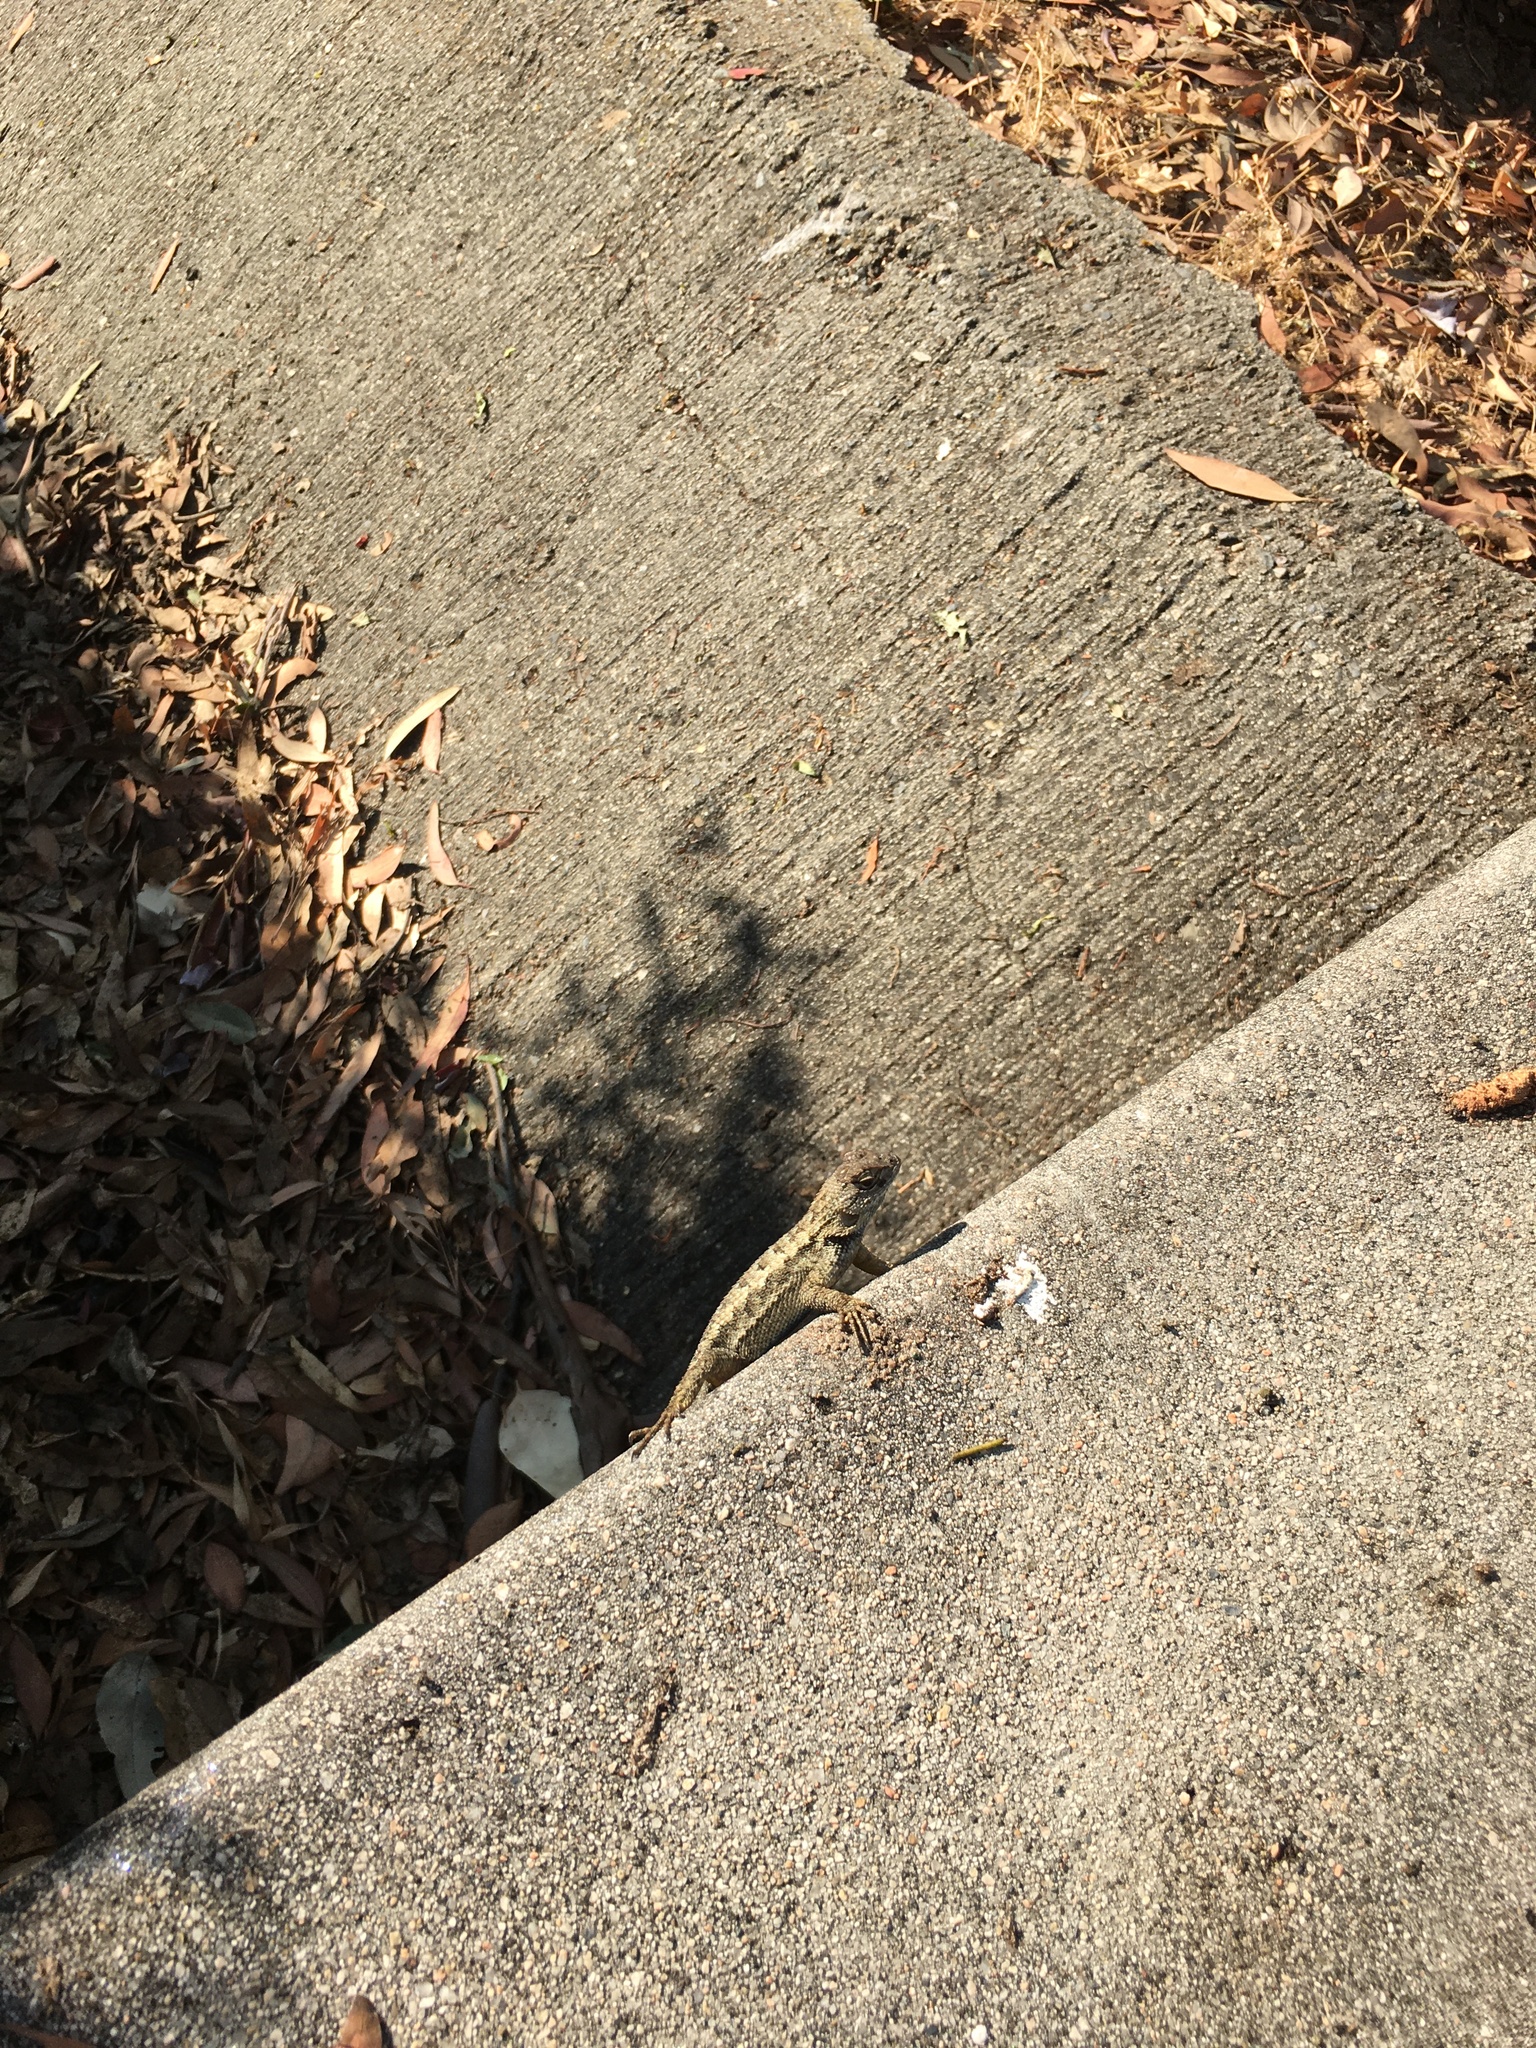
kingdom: Animalia
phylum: Chordata
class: Squamata
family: Phrynosomatidae
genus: Sceloporus
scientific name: Sceloporus occidentalis
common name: Western fence lizard
